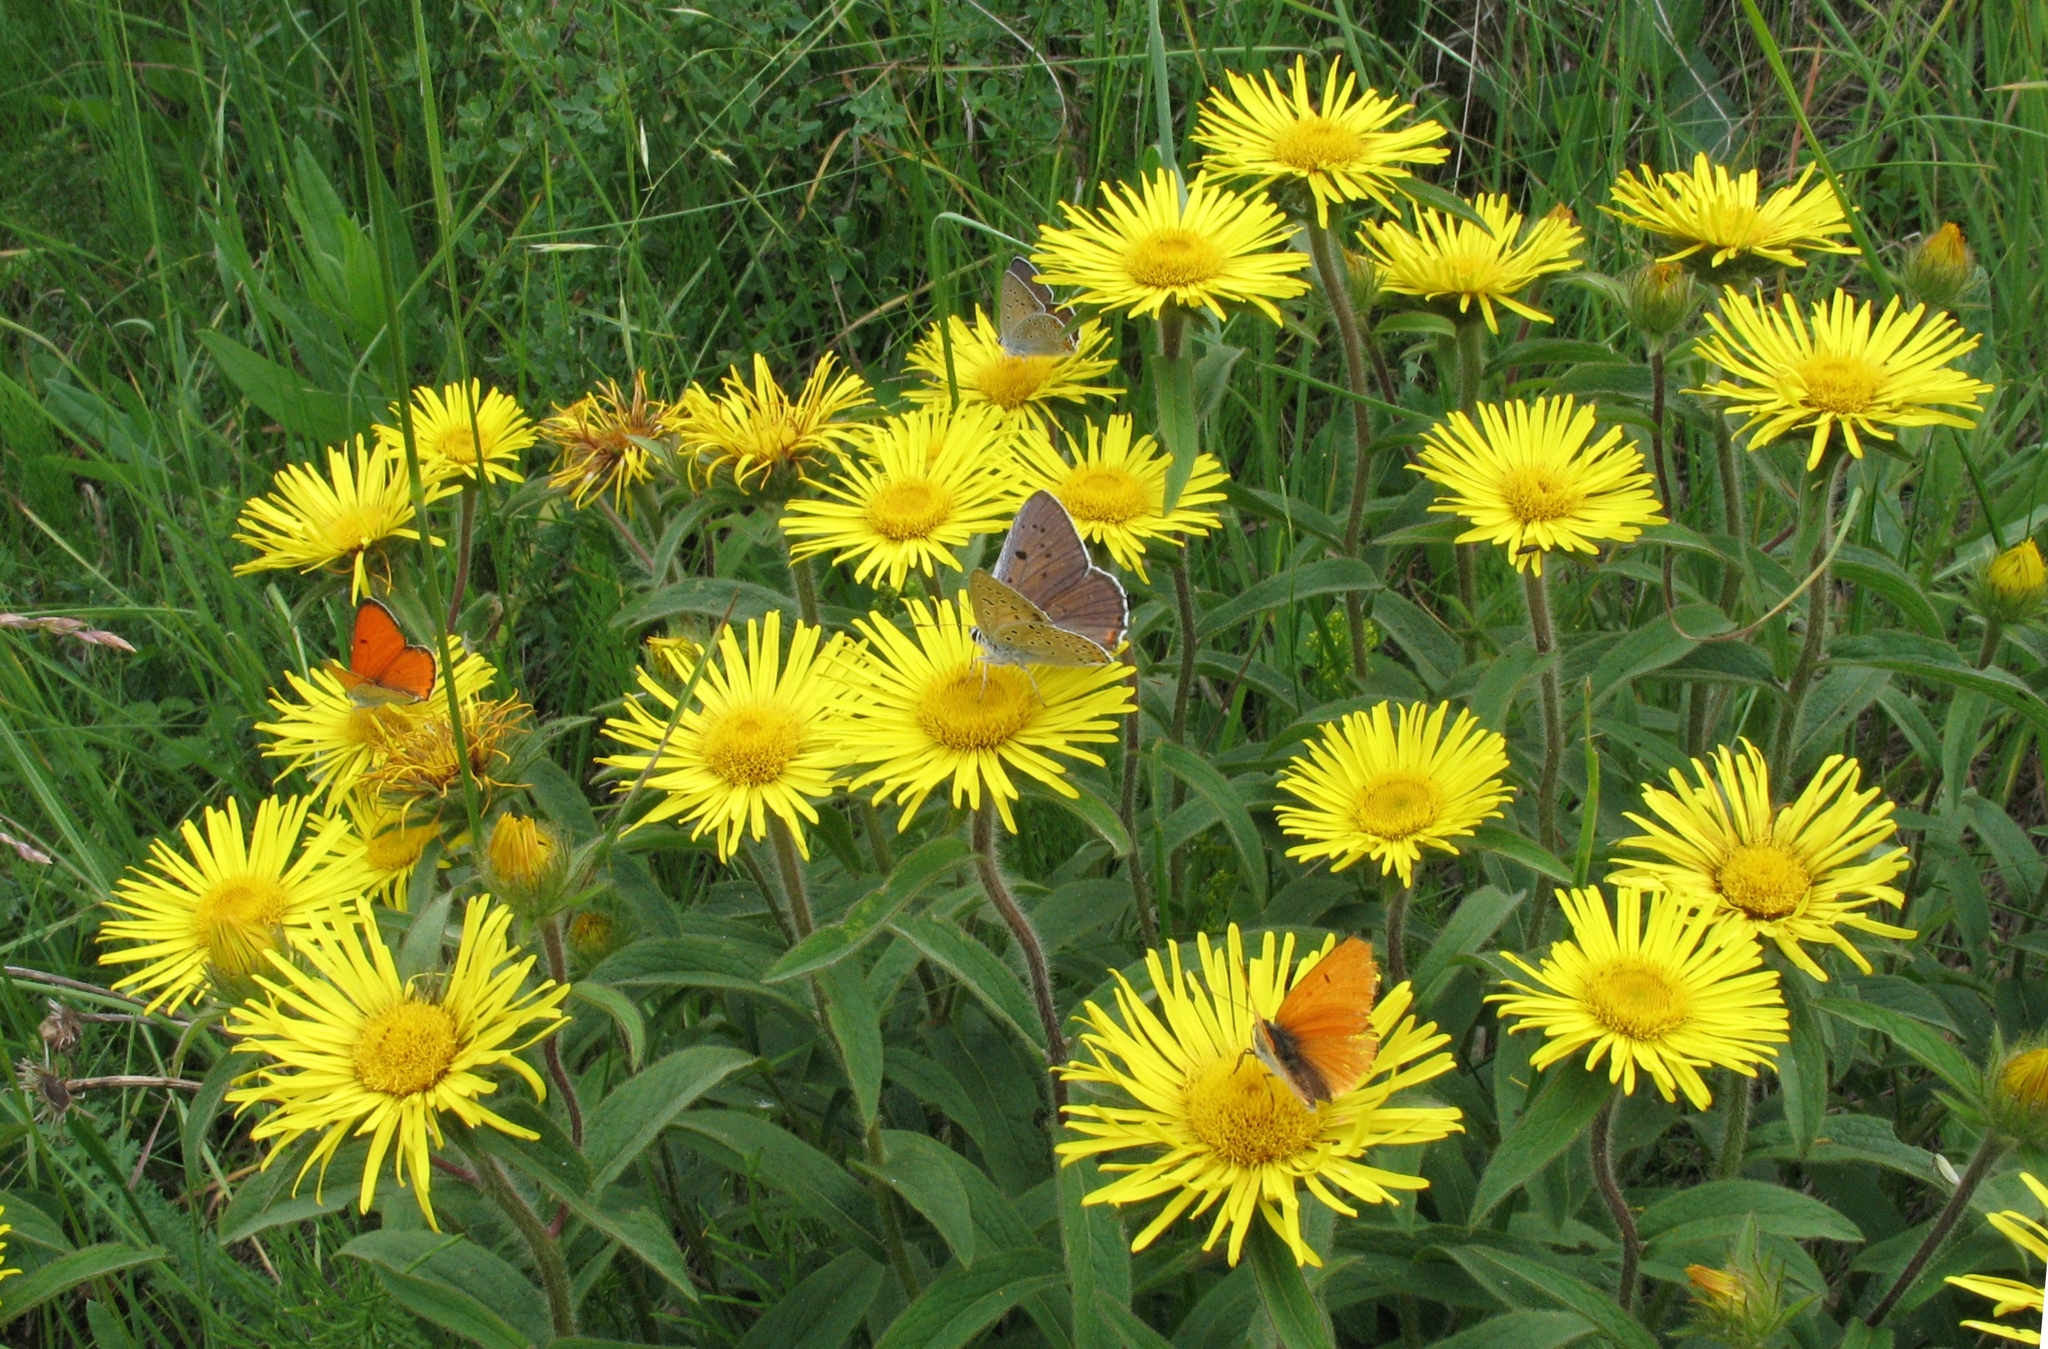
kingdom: Animalia
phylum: Arthropoda
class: Insecta
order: Lepidoptera
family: Lycaenidae
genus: Lycaena
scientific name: Lycaena dispar
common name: Large copper
